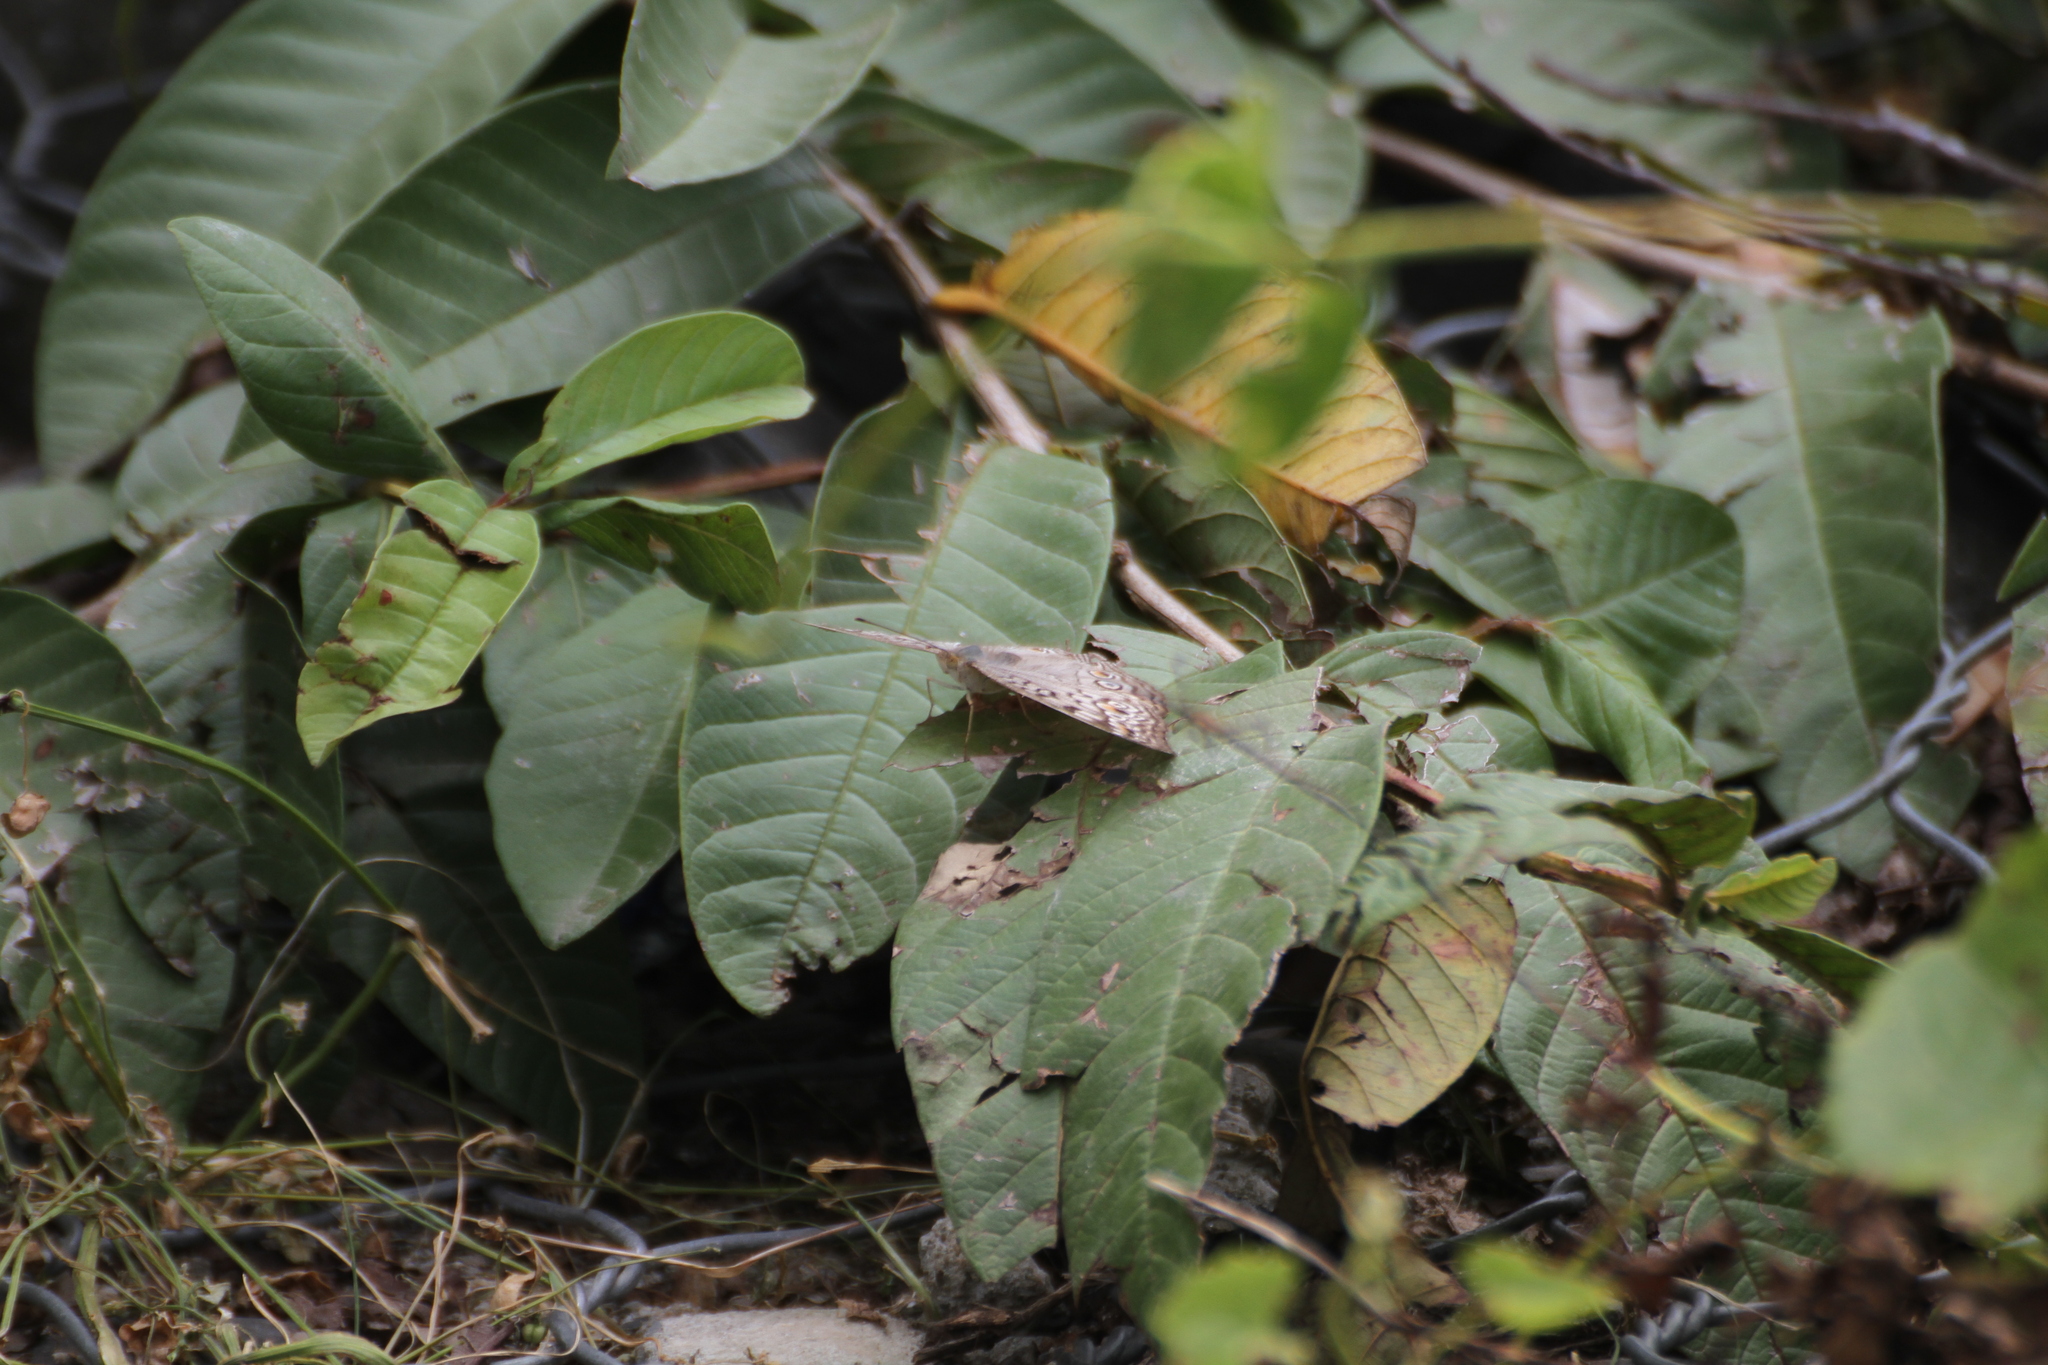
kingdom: Animalia
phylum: Arthropoda
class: Insecta
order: Lepidoptera
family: Nymphalidae
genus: Junonia
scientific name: Junonia atlites
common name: Grey pansy
